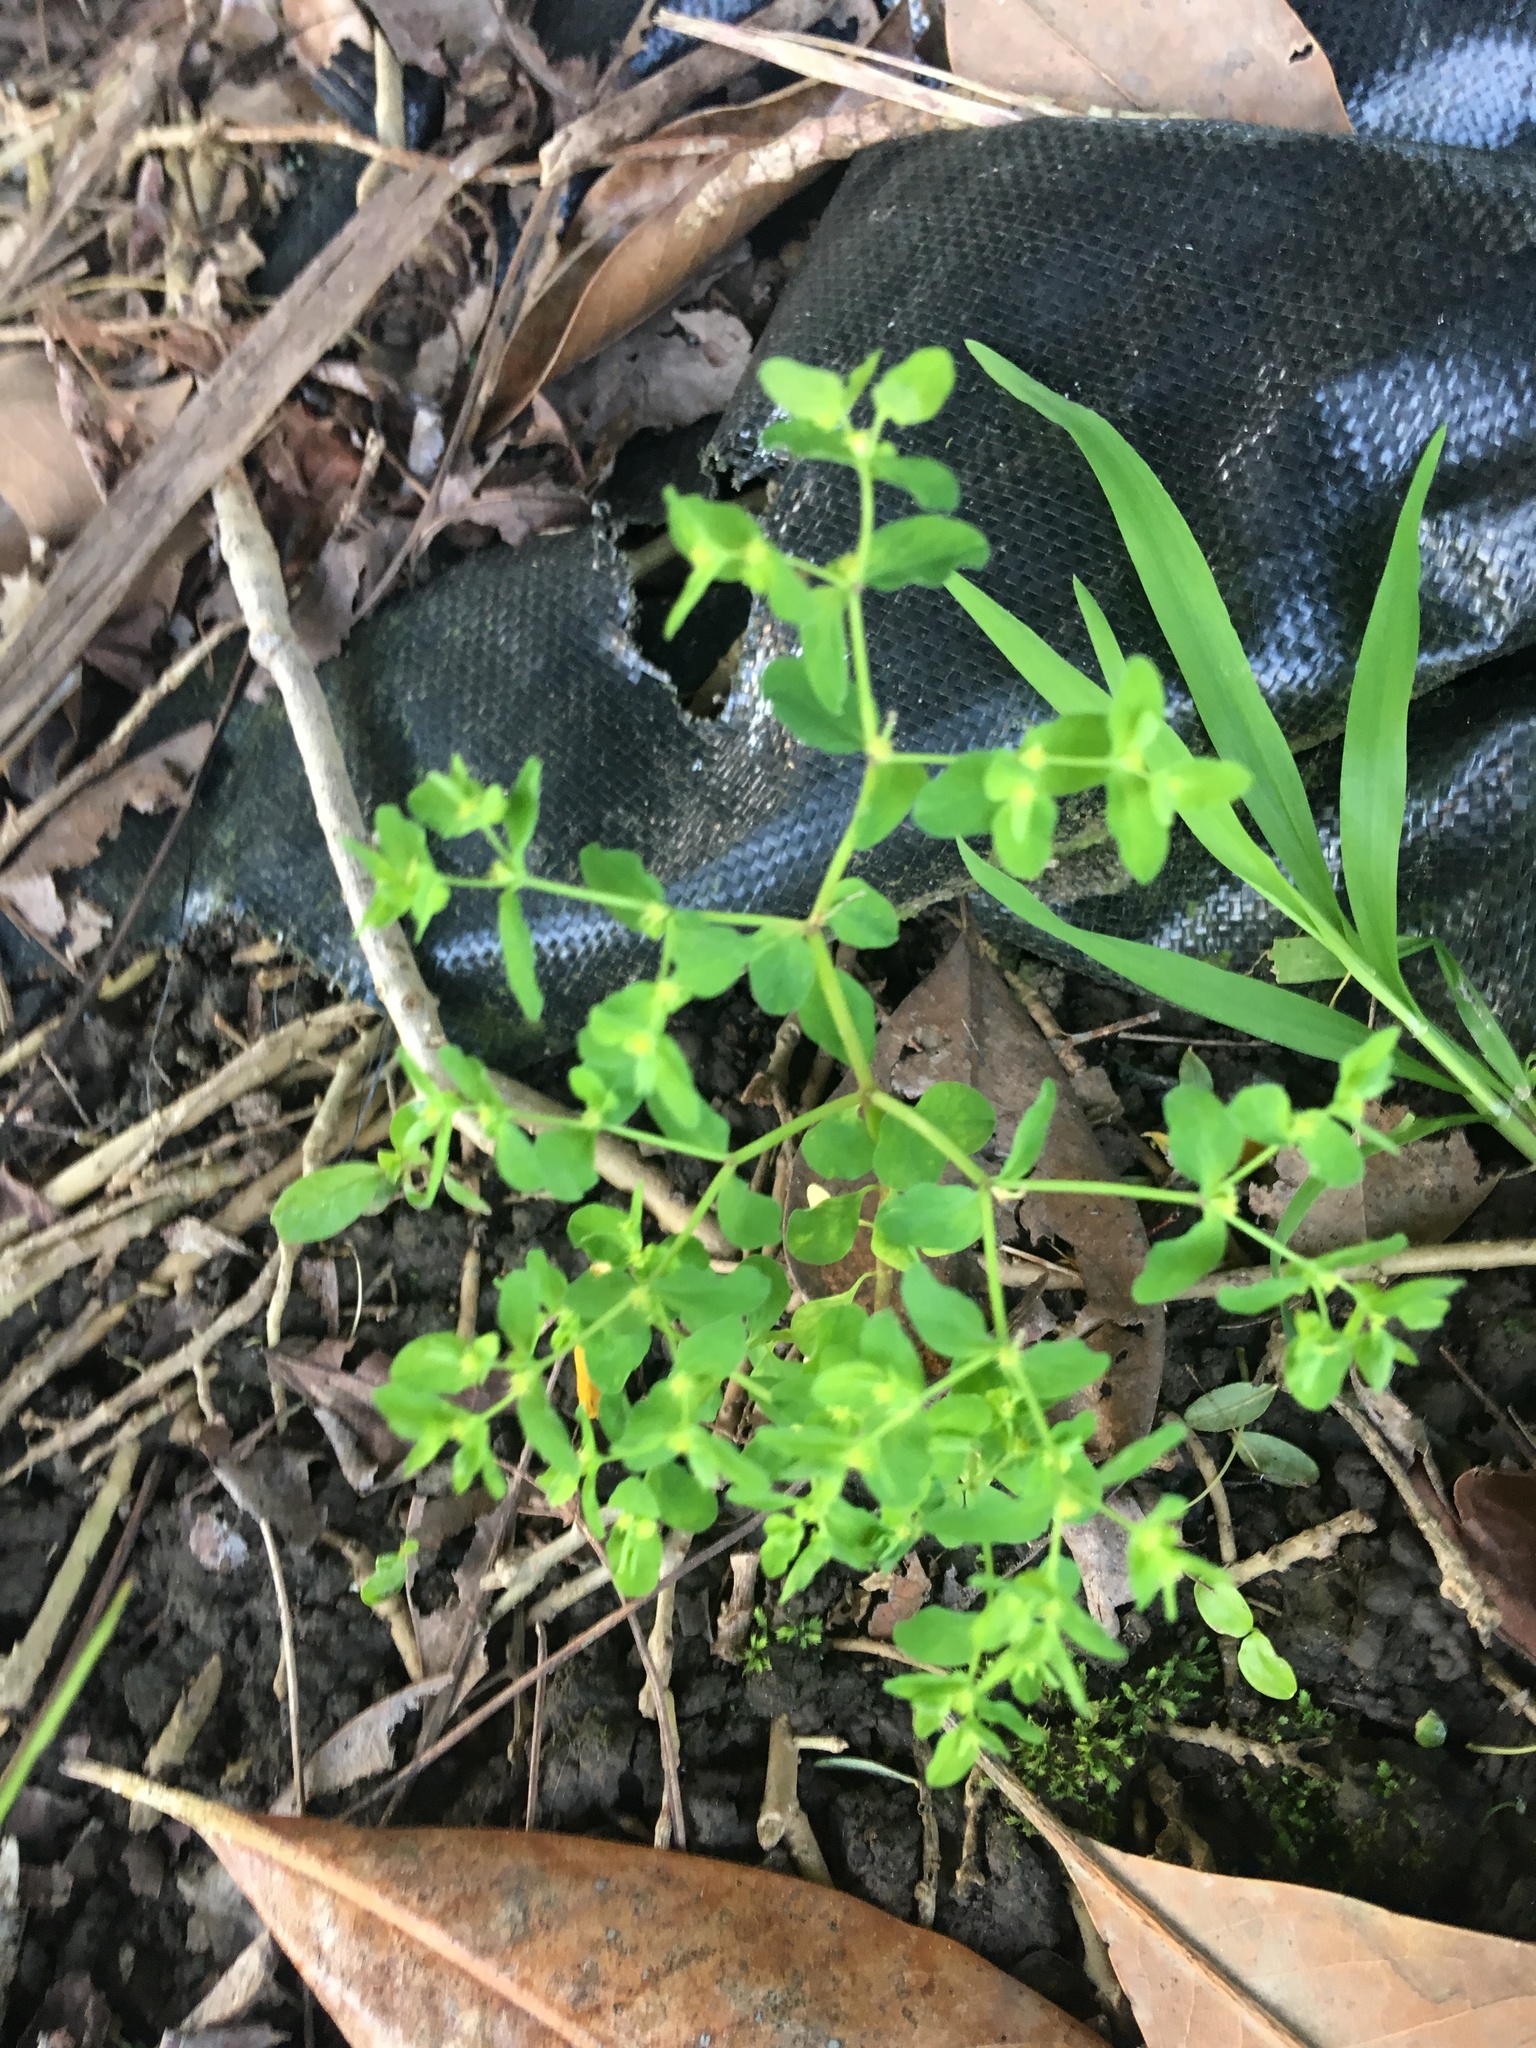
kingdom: Plantae
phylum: Tracheophyta
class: Magnoliopsida
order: Malpighiales
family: Euphorbiaceae
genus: Euphorbia
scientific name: Euphorbia peplus
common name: Petty spurge
